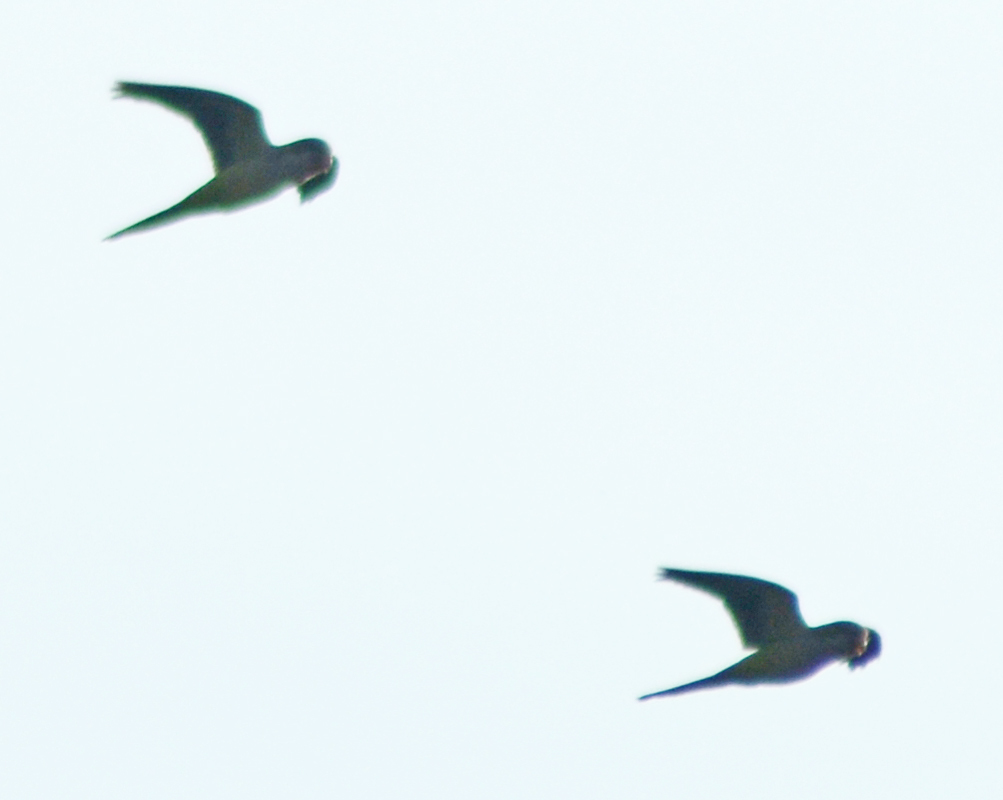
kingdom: Animalia
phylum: Chordata
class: Aves
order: Psittaciformes
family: Psittacidae
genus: Myiopsitta
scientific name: Myiopsitta monachus
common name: Monk parakeet
